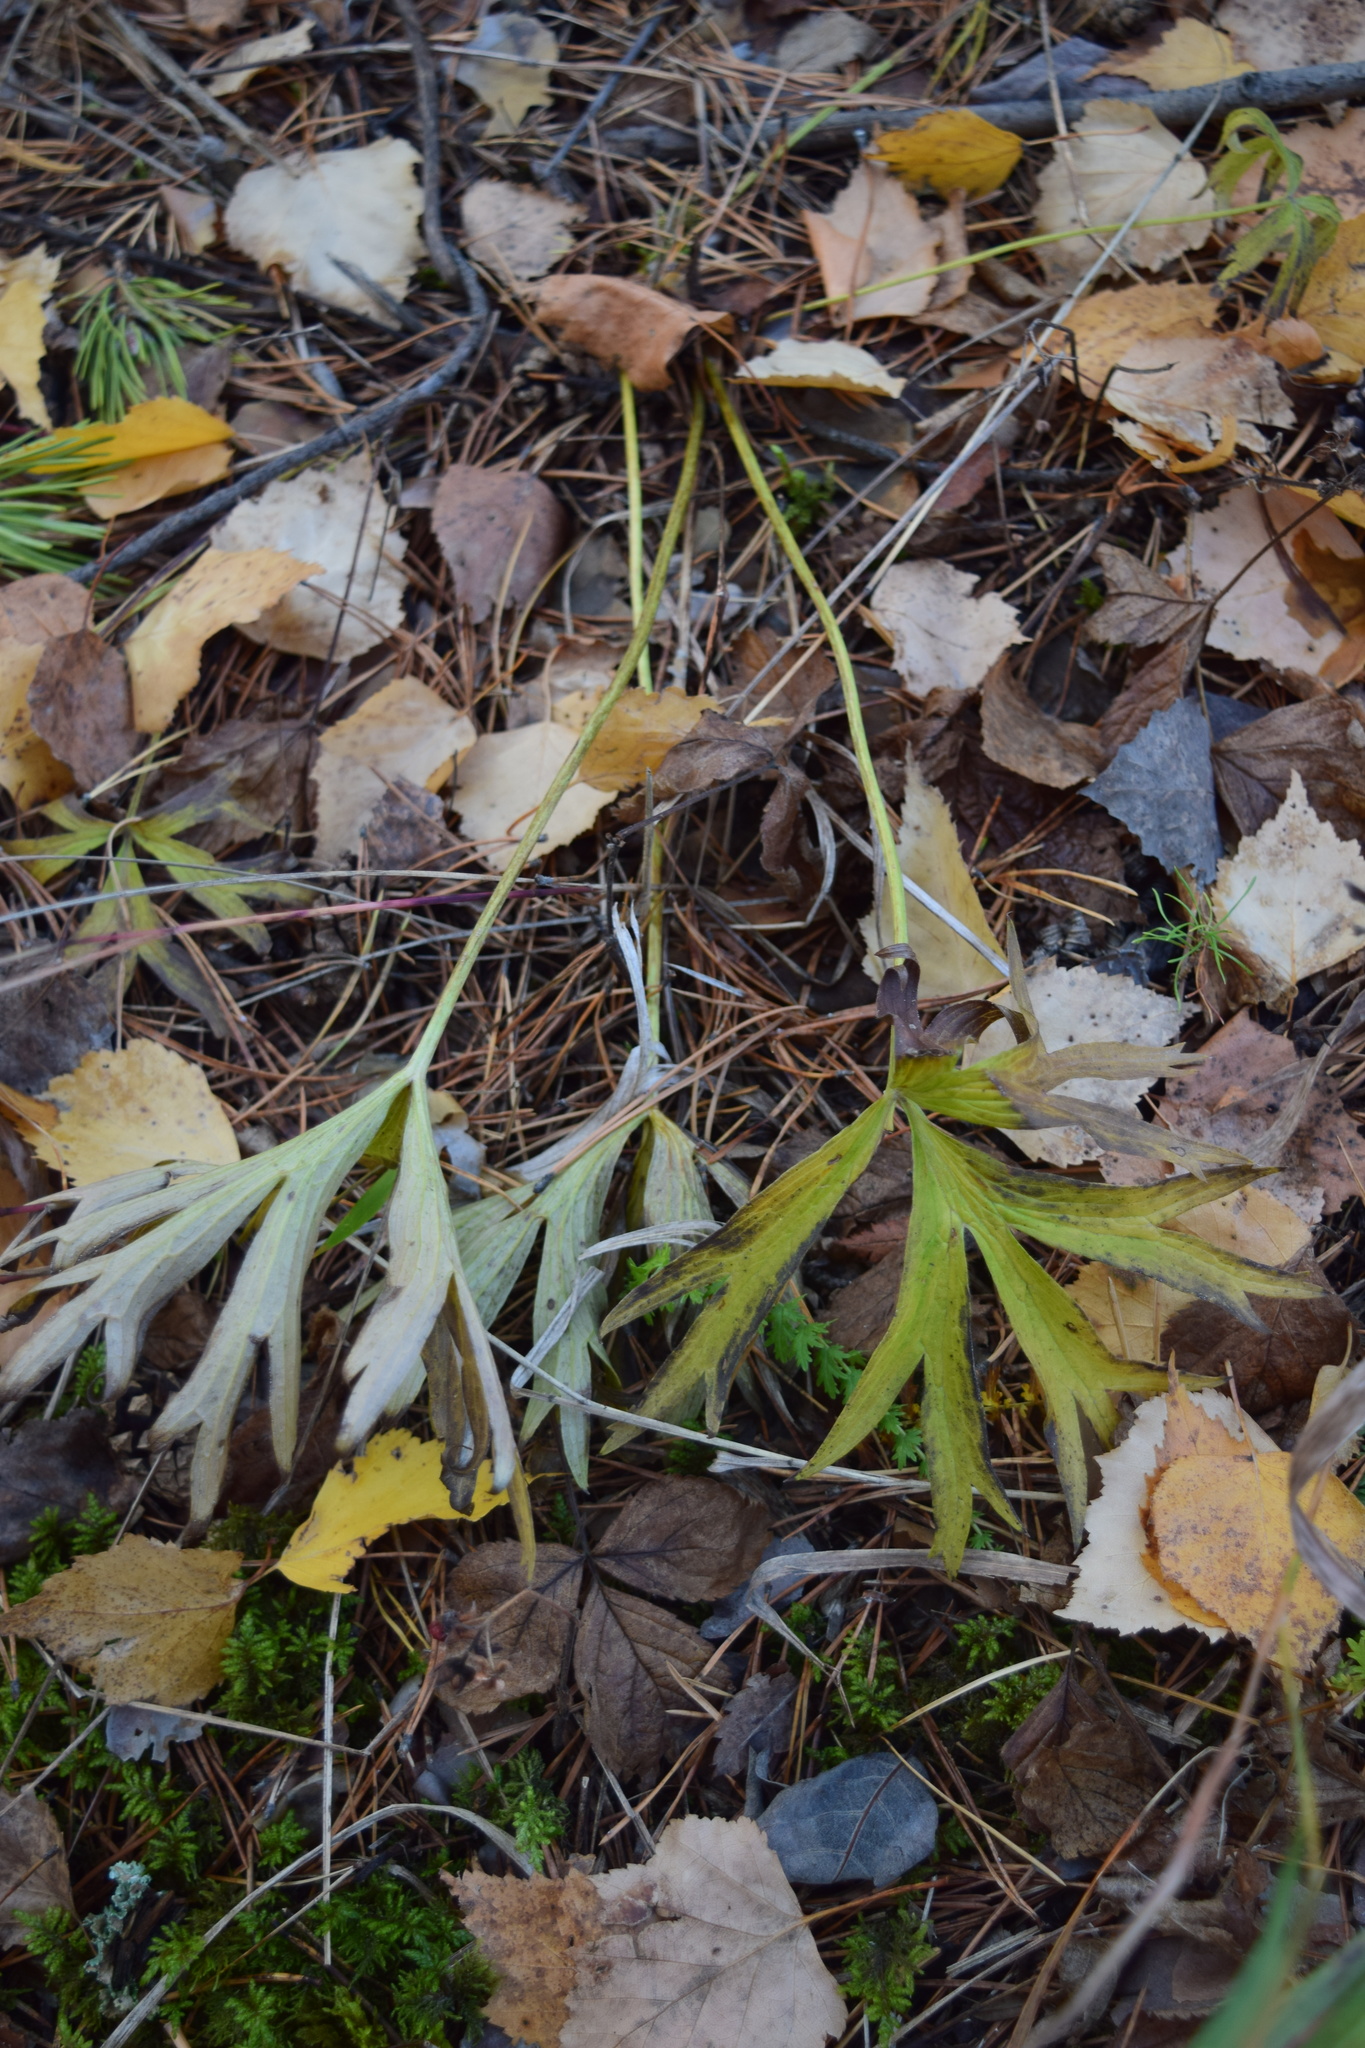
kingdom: Plantae
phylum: Tracheophyta
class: Magnoliopsida
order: Ranunculales
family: Ranunculaceae
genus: Pulsatilla
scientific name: Pulsatilla patens
